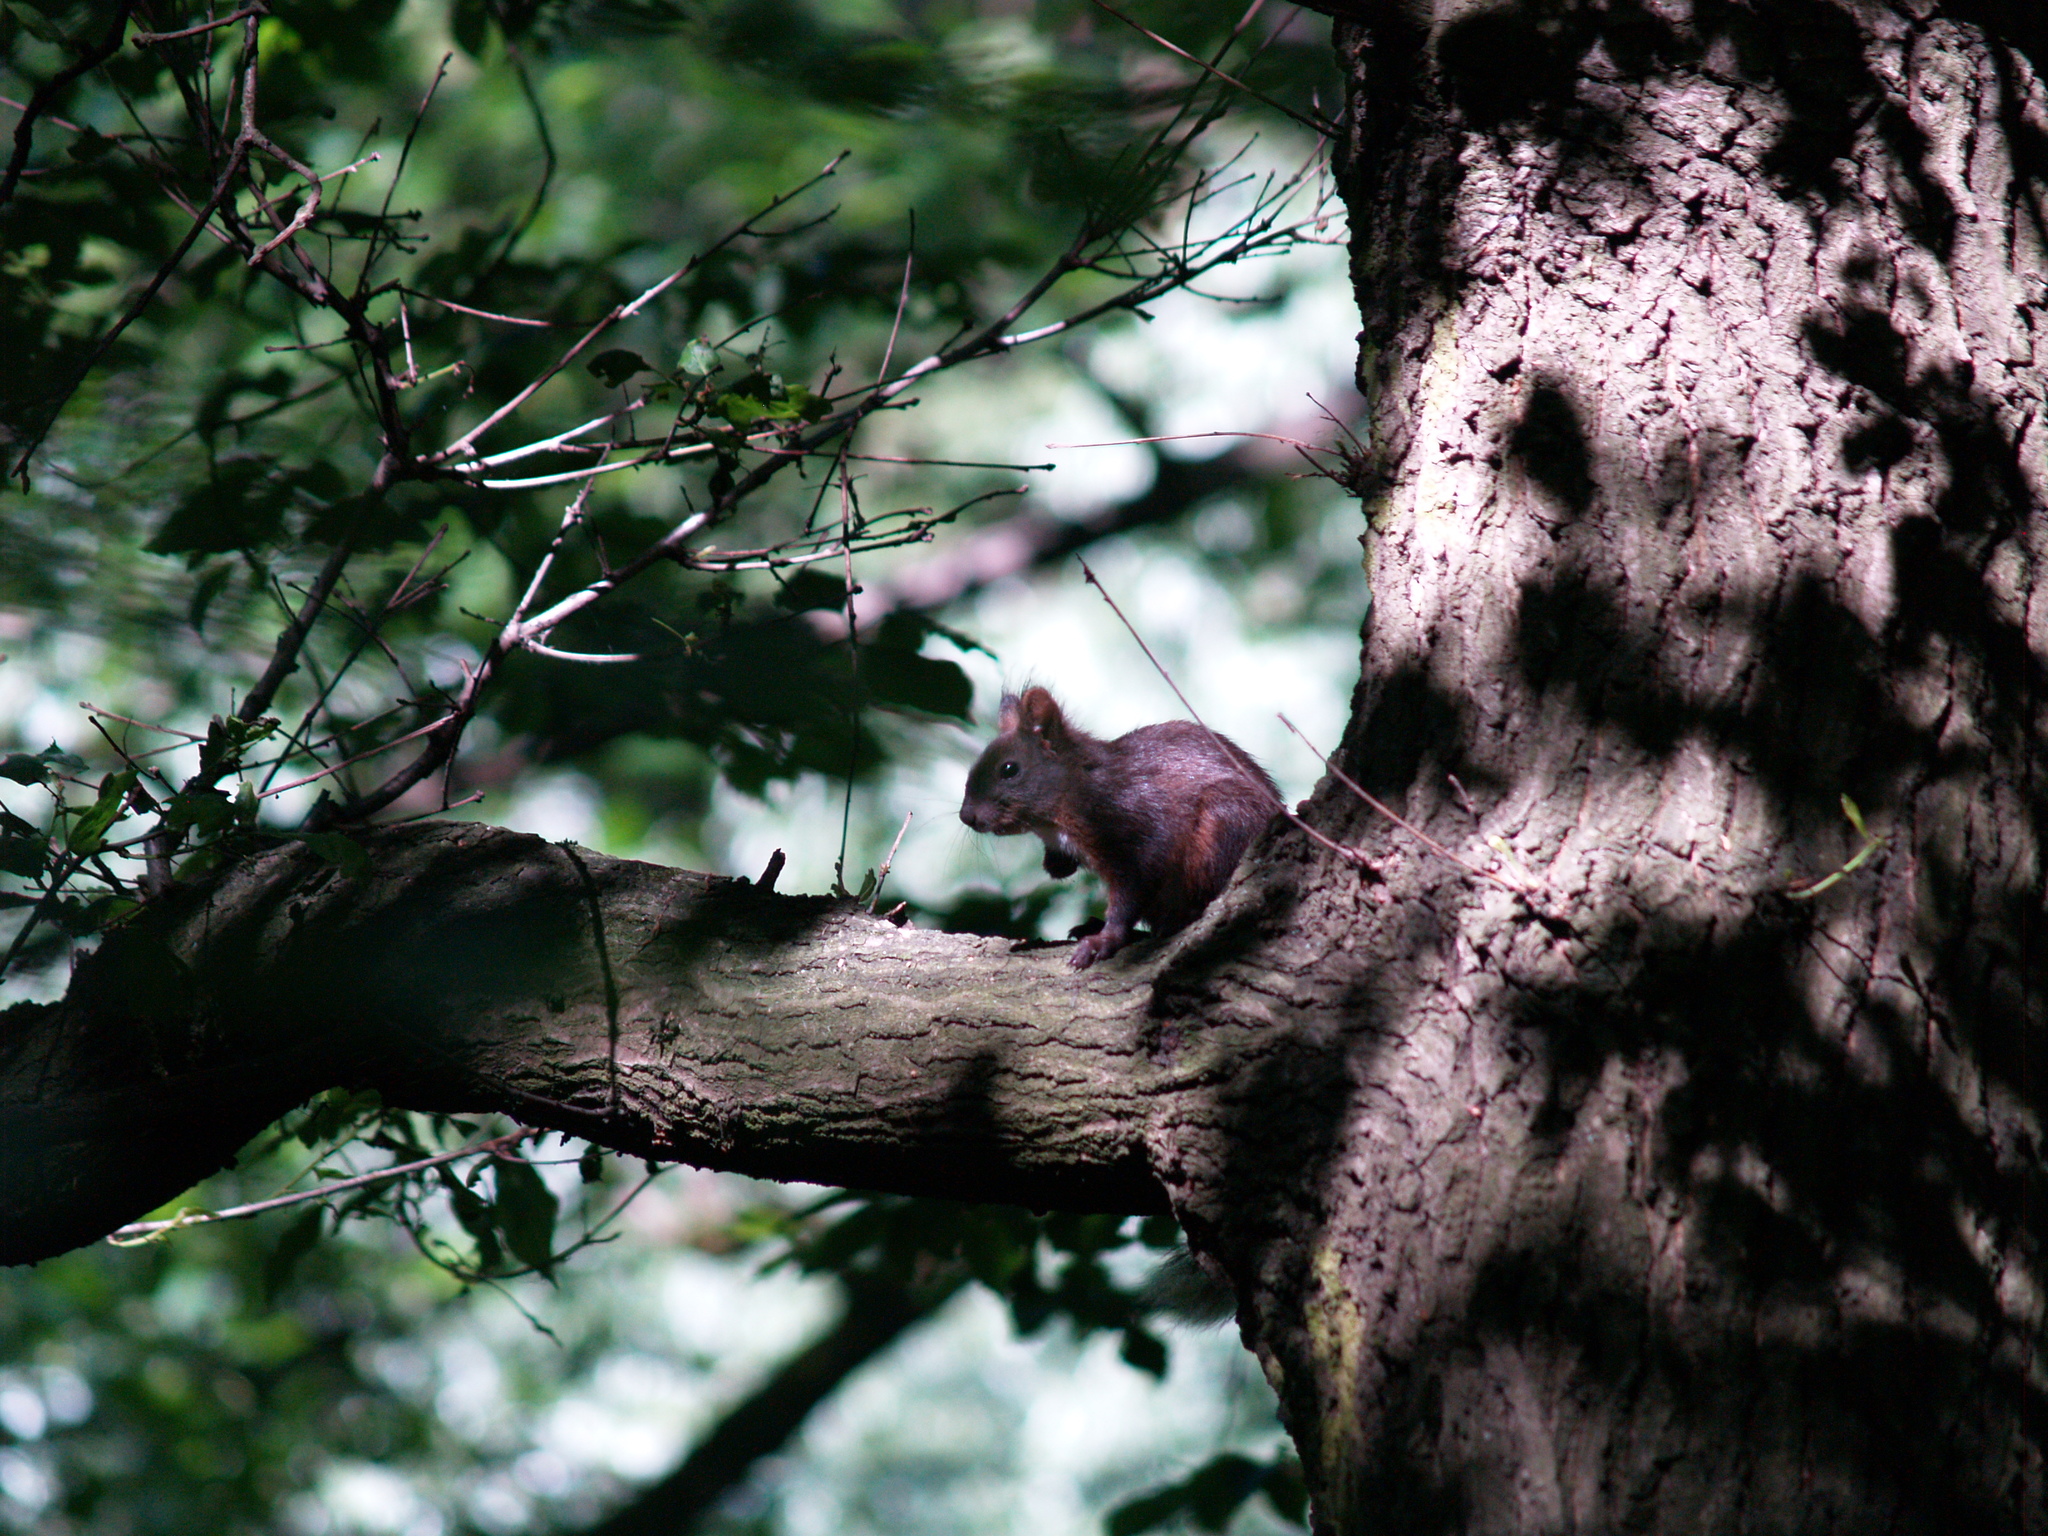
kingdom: Animalia
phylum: Chordata
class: Mammalia
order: Rodentia
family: Sciuridae
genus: Sciurus
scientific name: Sciurus vulgaris
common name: Eurasian red squirrel
